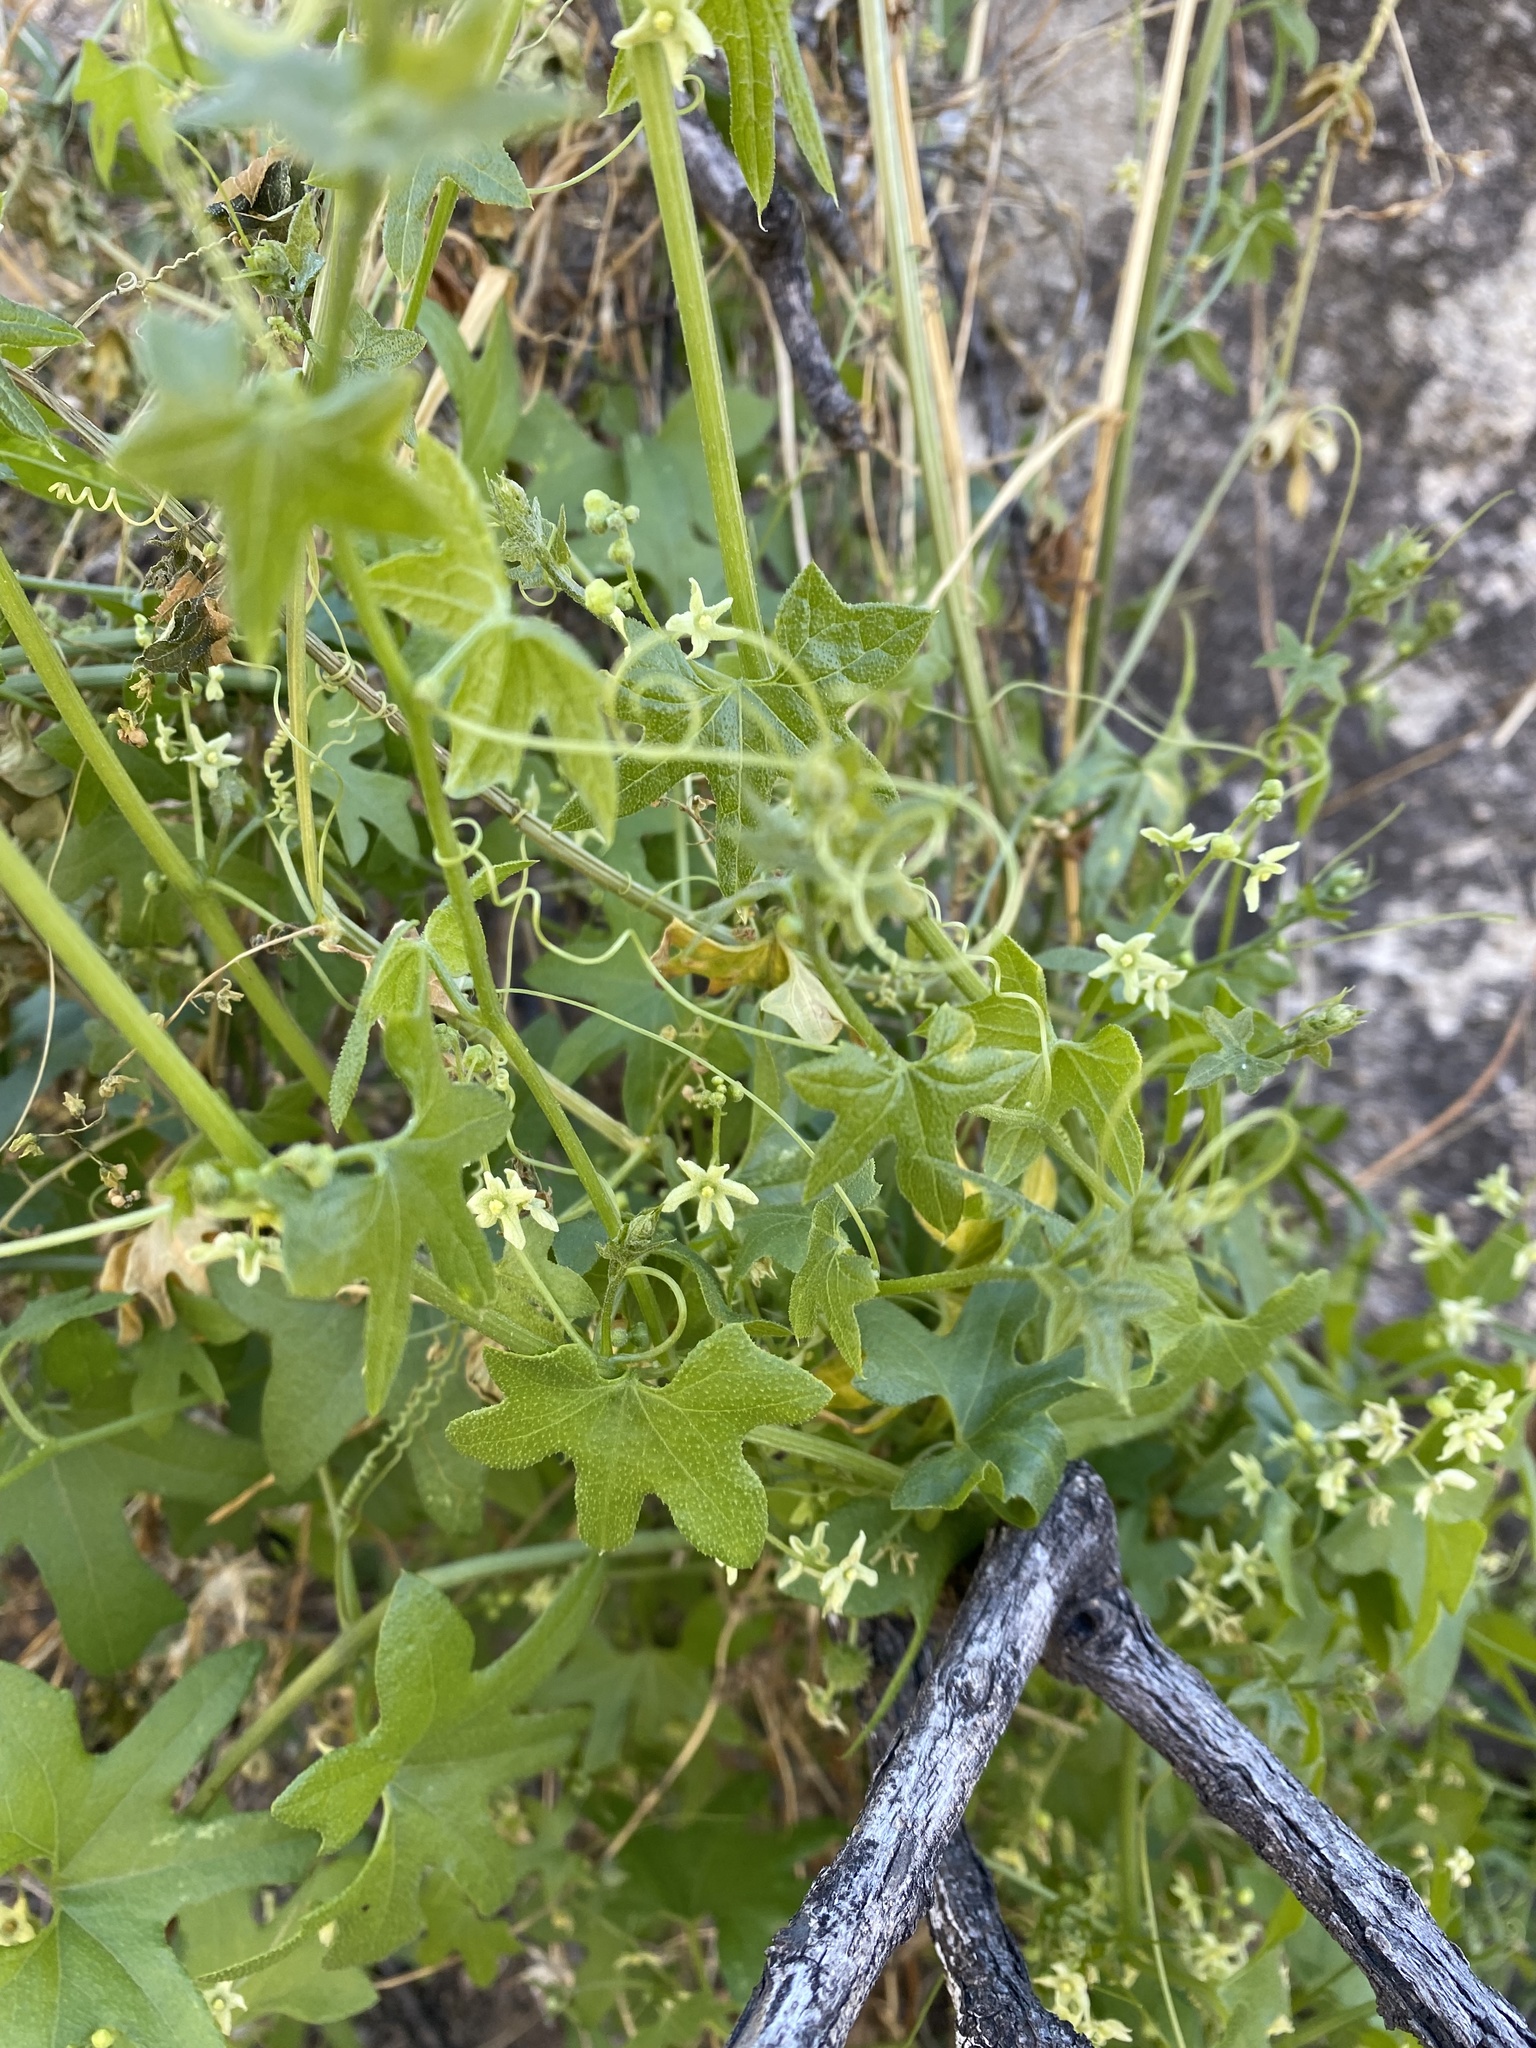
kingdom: Plantae
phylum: Tracheophyta
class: Magnoliopsida
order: Cucurbitales
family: Cucurbitaceae
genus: Marah
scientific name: Marah gilensis
